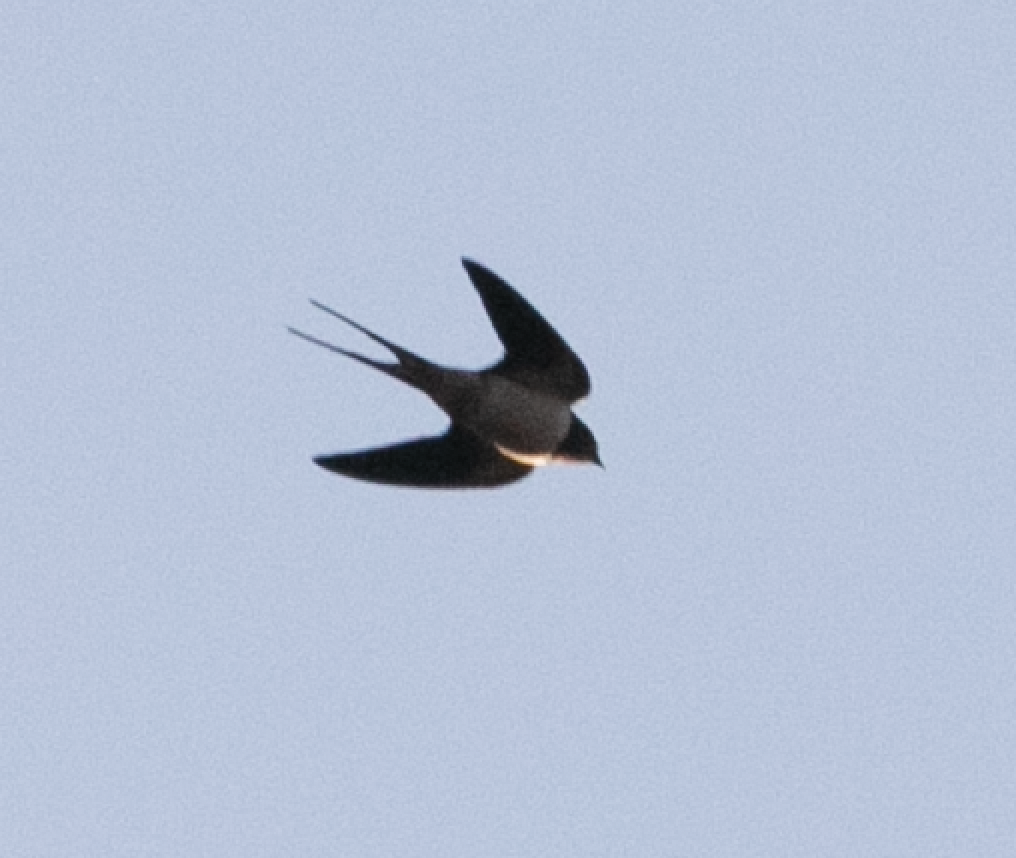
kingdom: Animalia
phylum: Chordata
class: Aves
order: Passeriformes
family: Hirundinidae
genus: Hirundo
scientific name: Hirundo rustica
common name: Barn swallow
